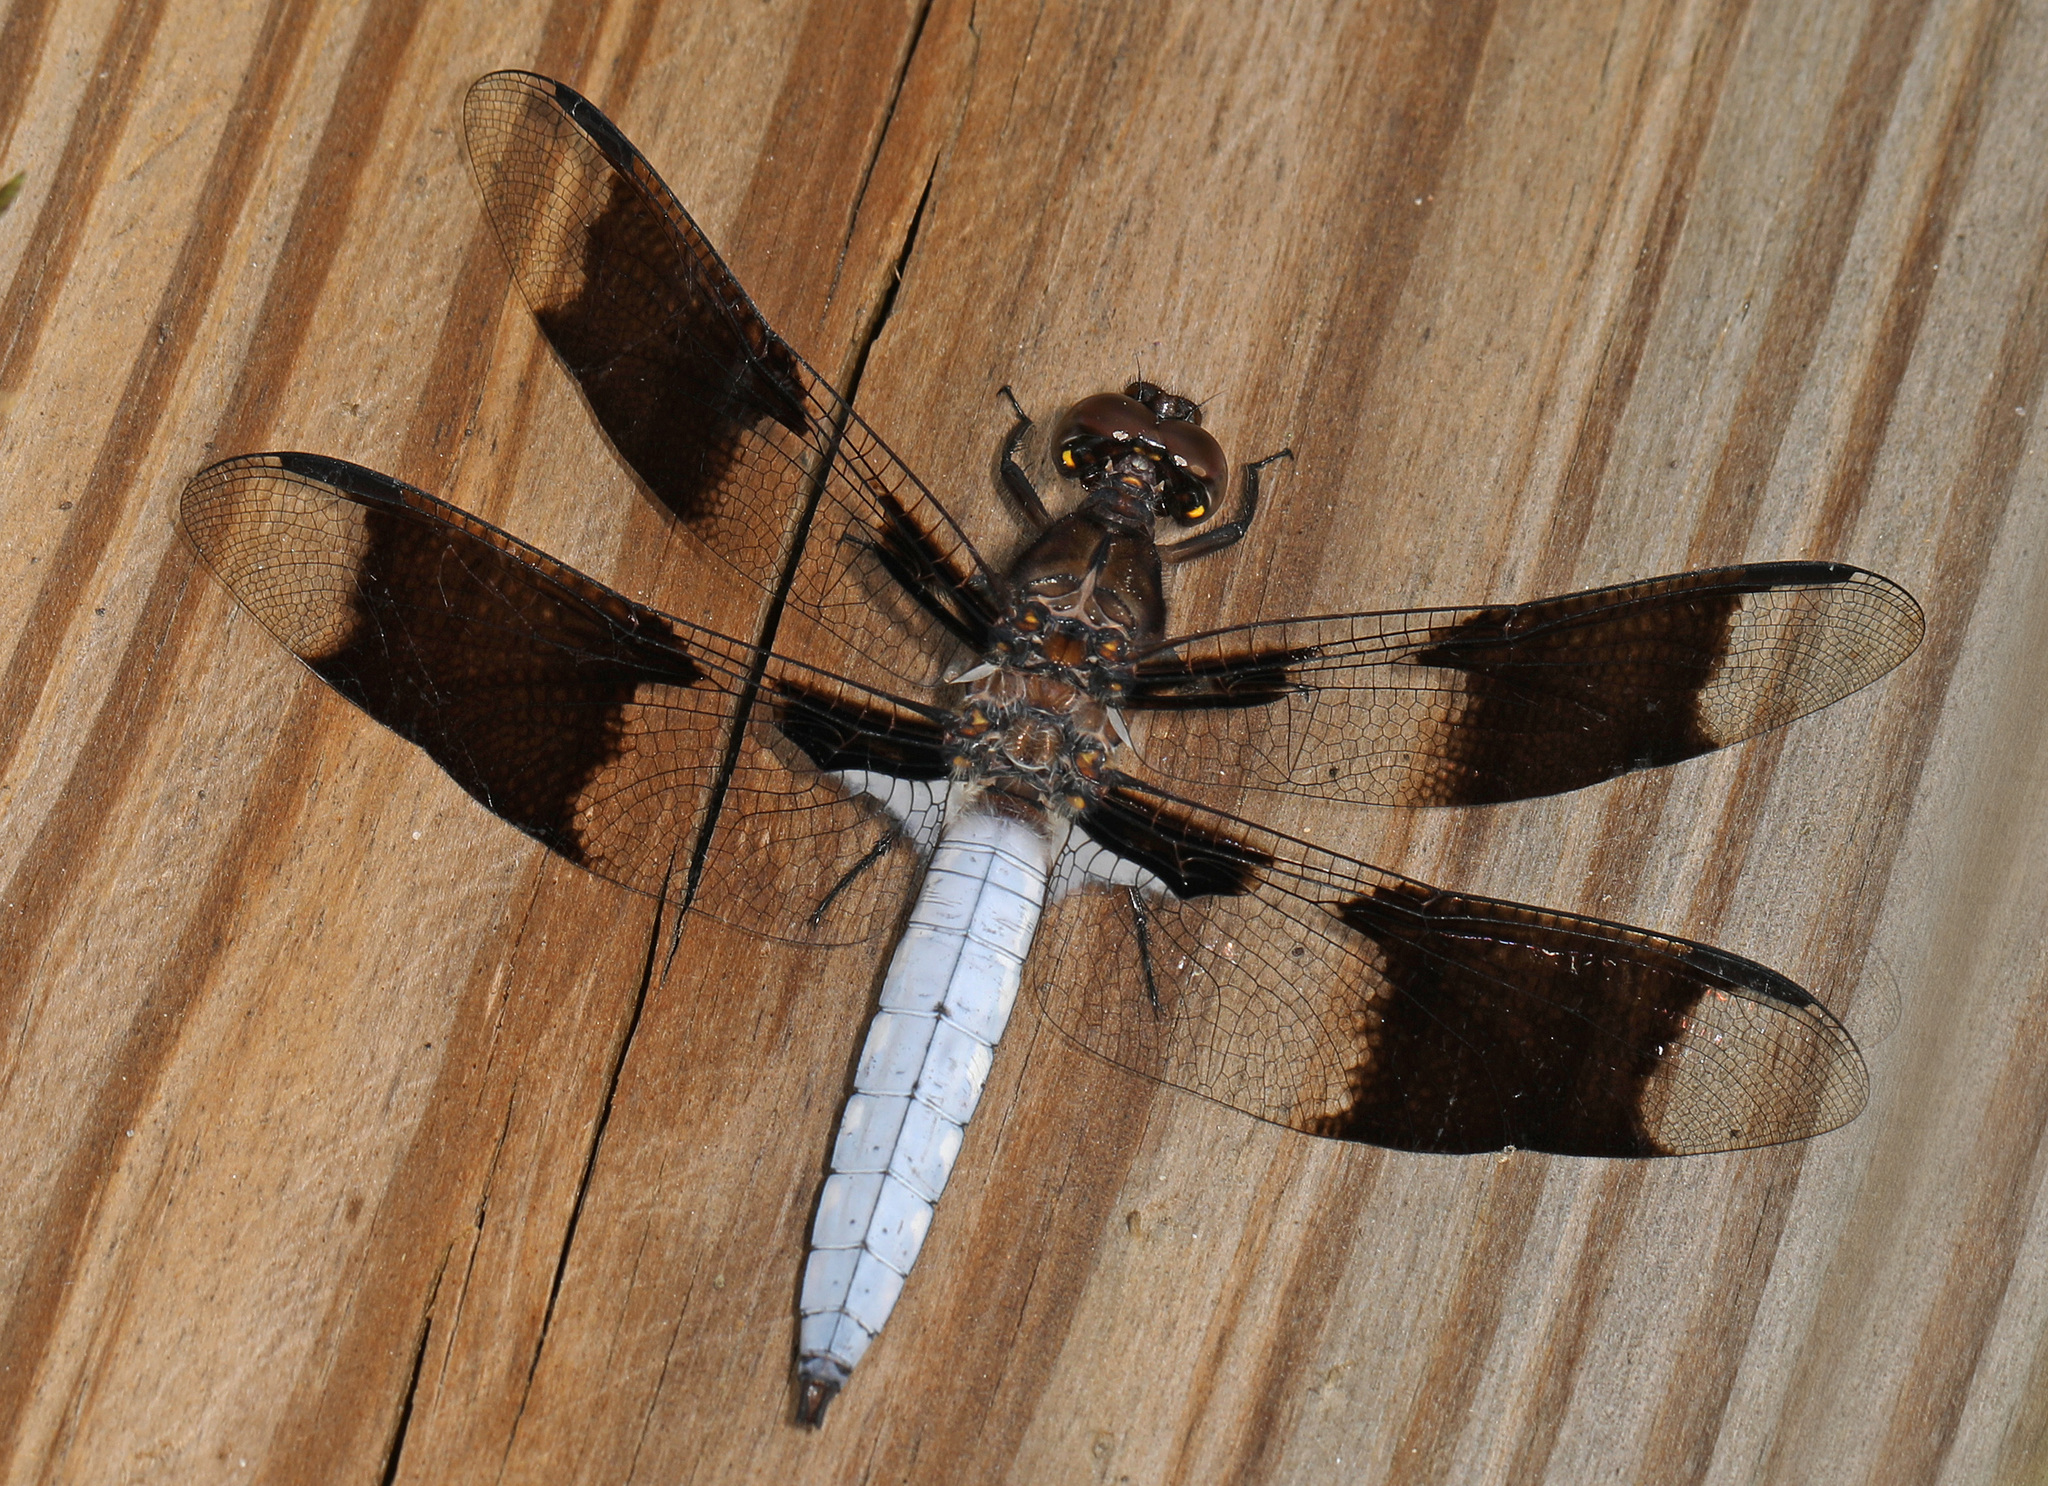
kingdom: Animalia
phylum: Arthropoda
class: Insecta
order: Odonata
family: Libellulidae
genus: Plathemis
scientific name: Plathemis lydia
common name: Common whitetail
